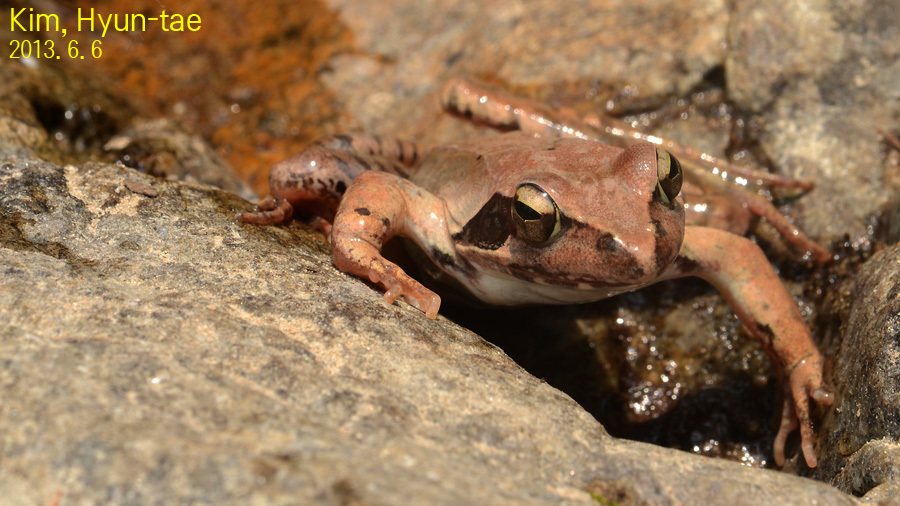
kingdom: Animalia
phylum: Chordata
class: Amphibia
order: Anura
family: Ranidae
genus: Rana
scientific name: Rana uenoi
